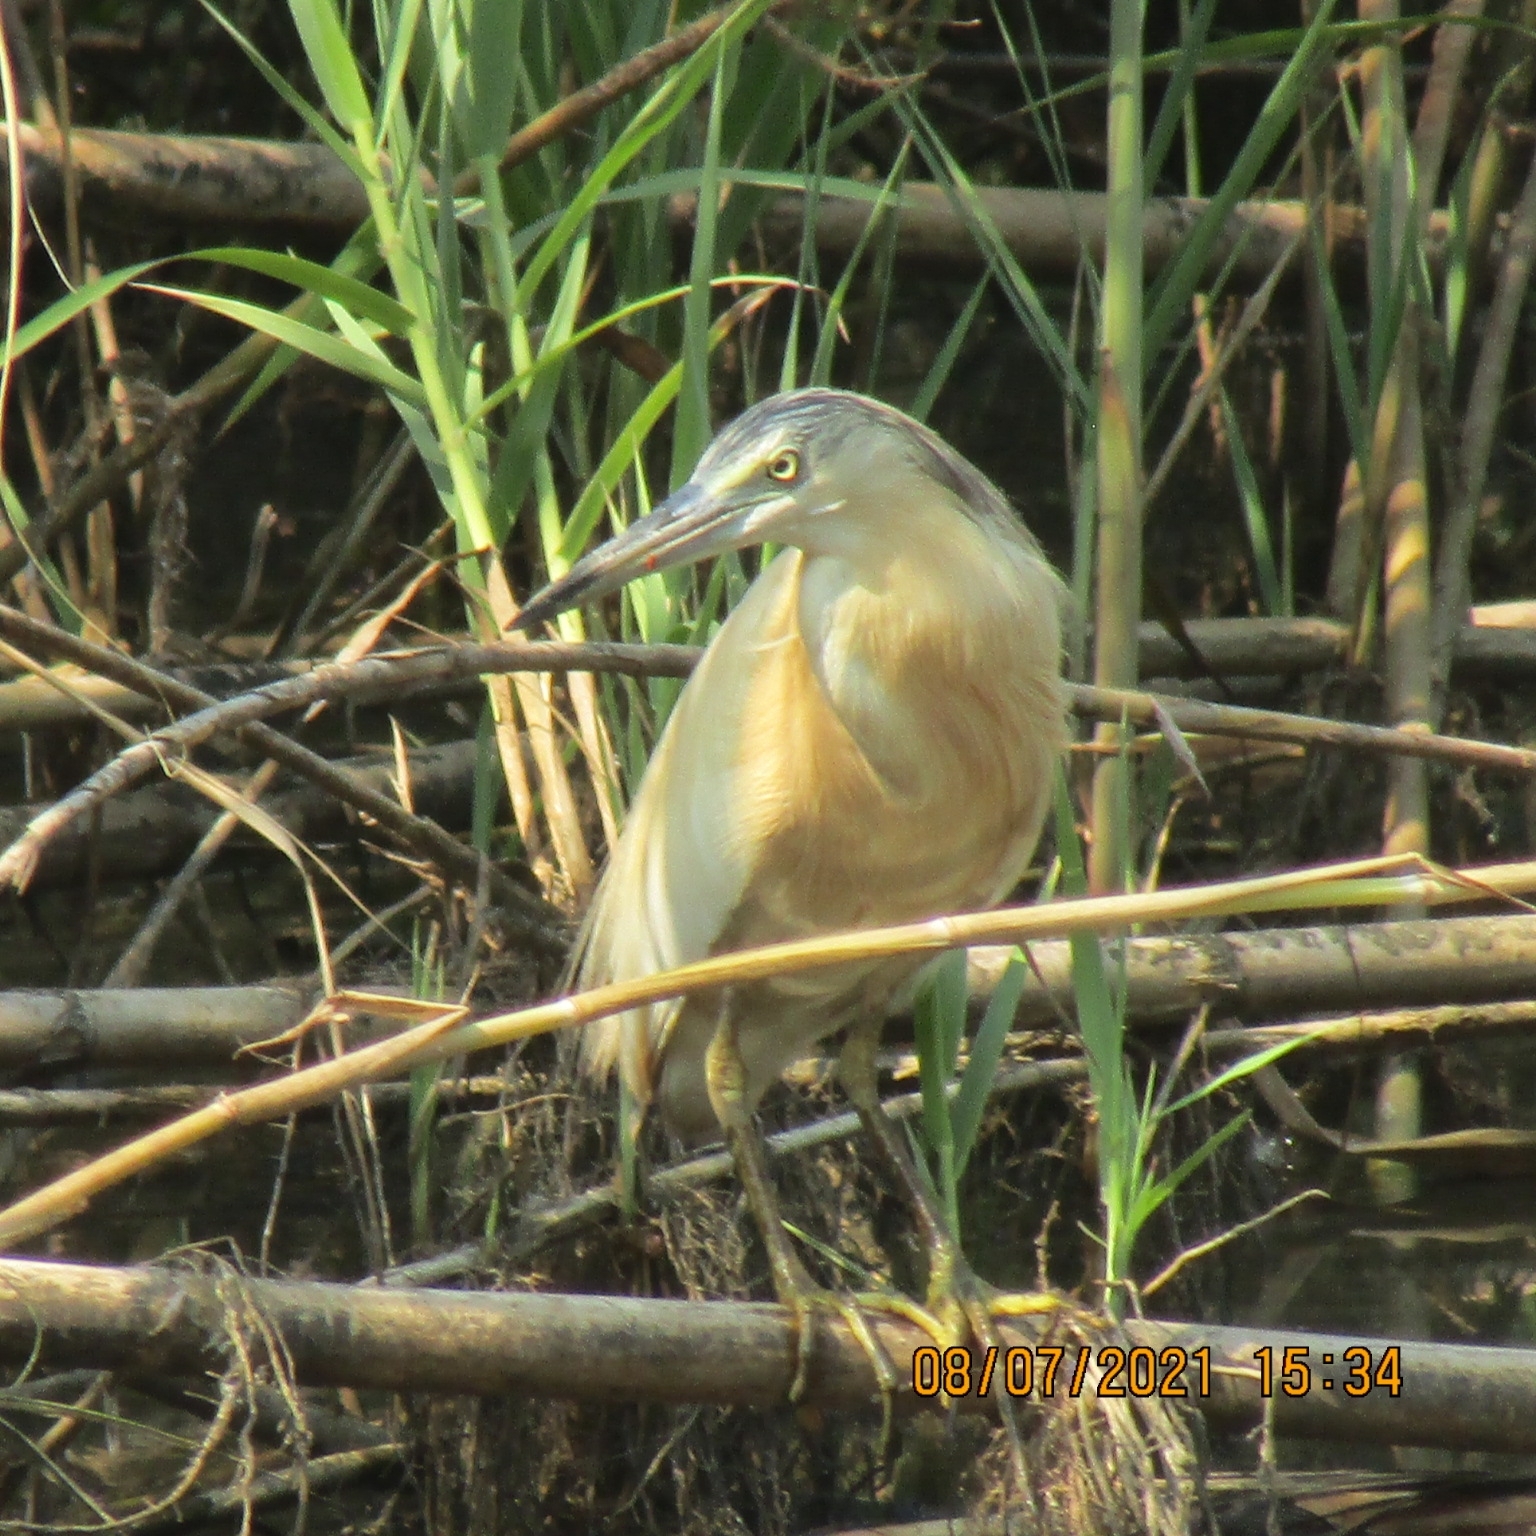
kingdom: Animalia
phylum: Chordata
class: Aves
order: Pelecaniformes
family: Ardeidae
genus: Ardeola
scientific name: Ardeola ralloides
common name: Squacco heron
